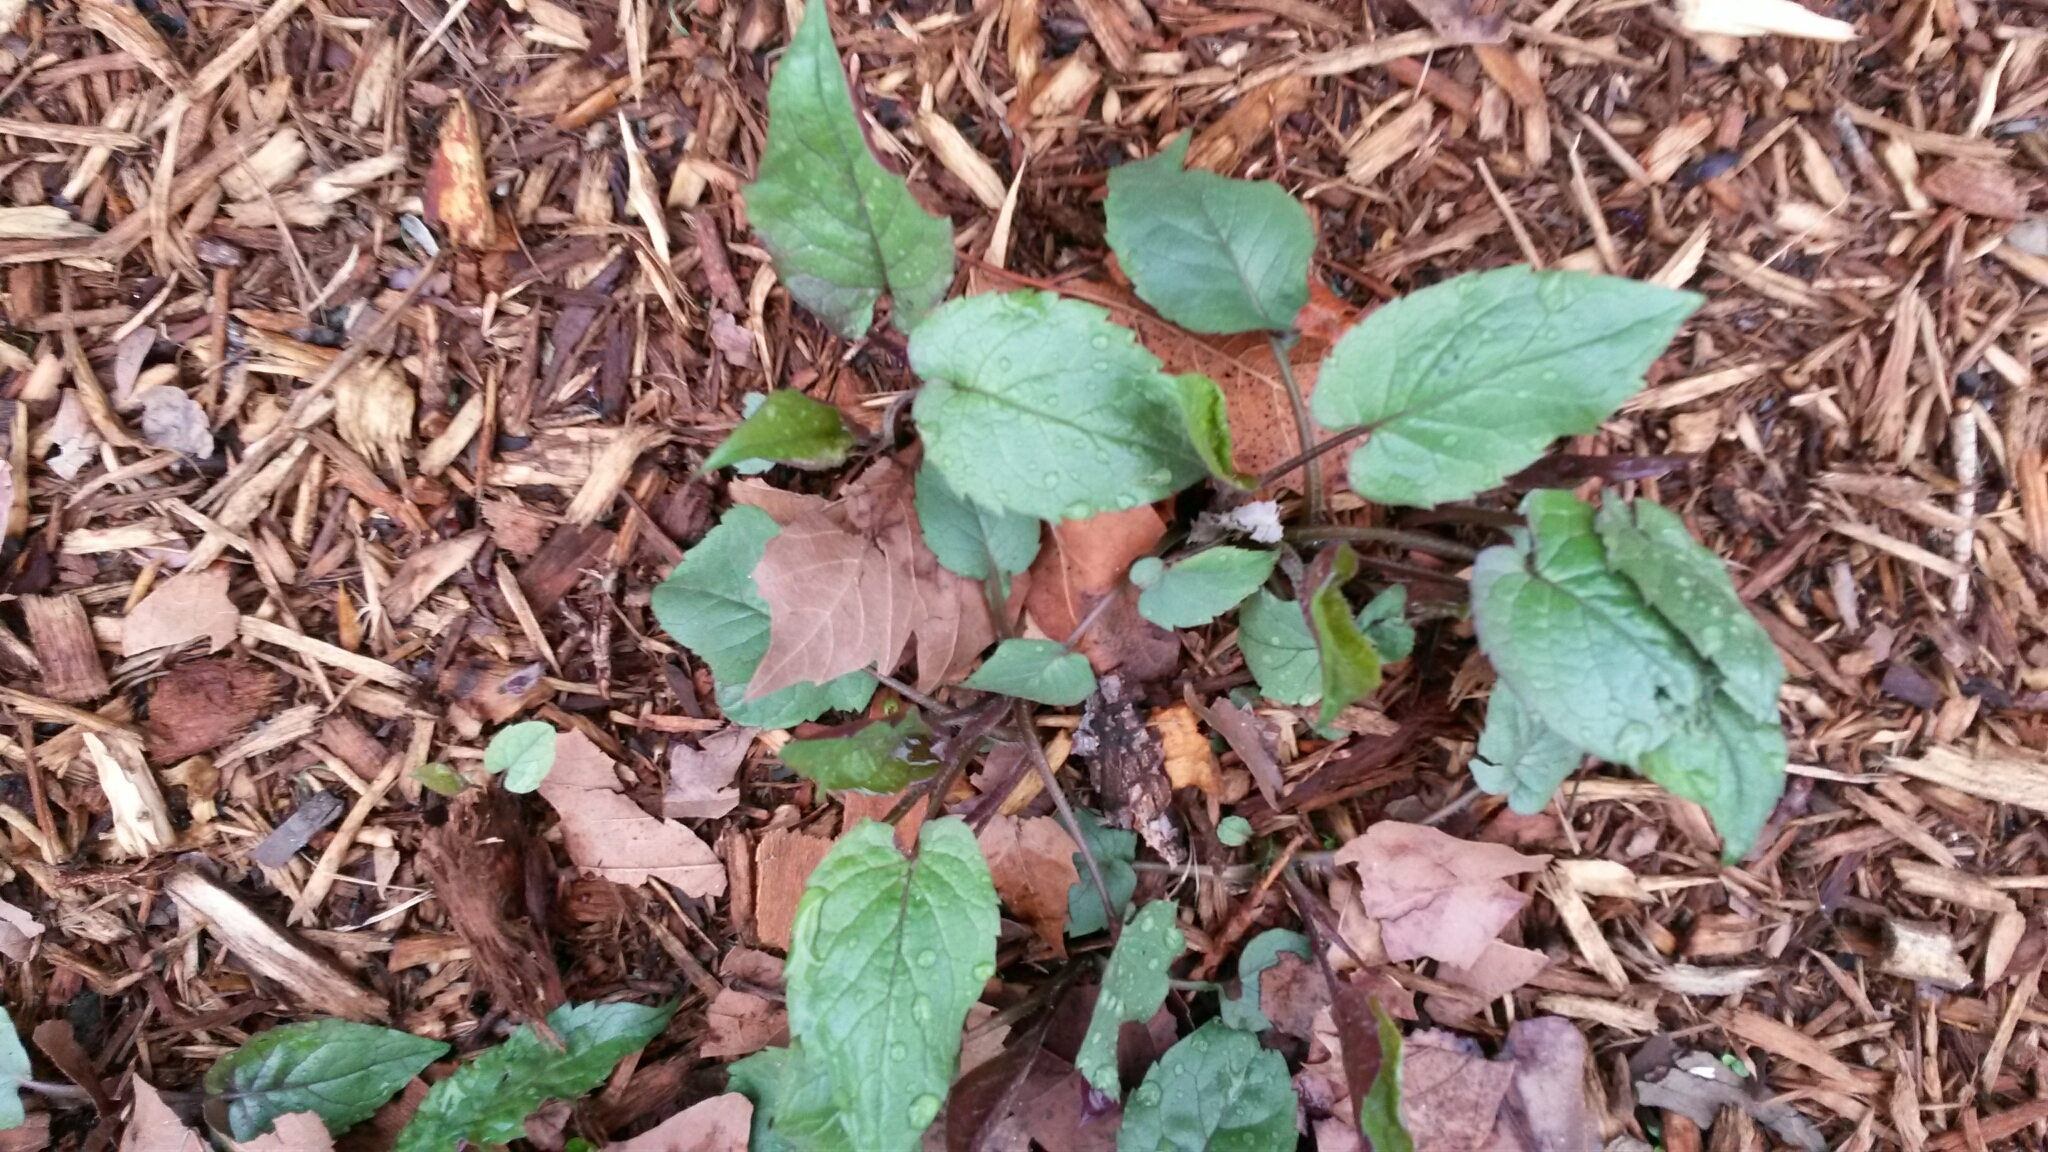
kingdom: Plantae
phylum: Tracheophyta
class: Magnoliopsida
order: Asterales
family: Asteraceae
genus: Eurybia
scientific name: Eurybia divaricata
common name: White wood aster
